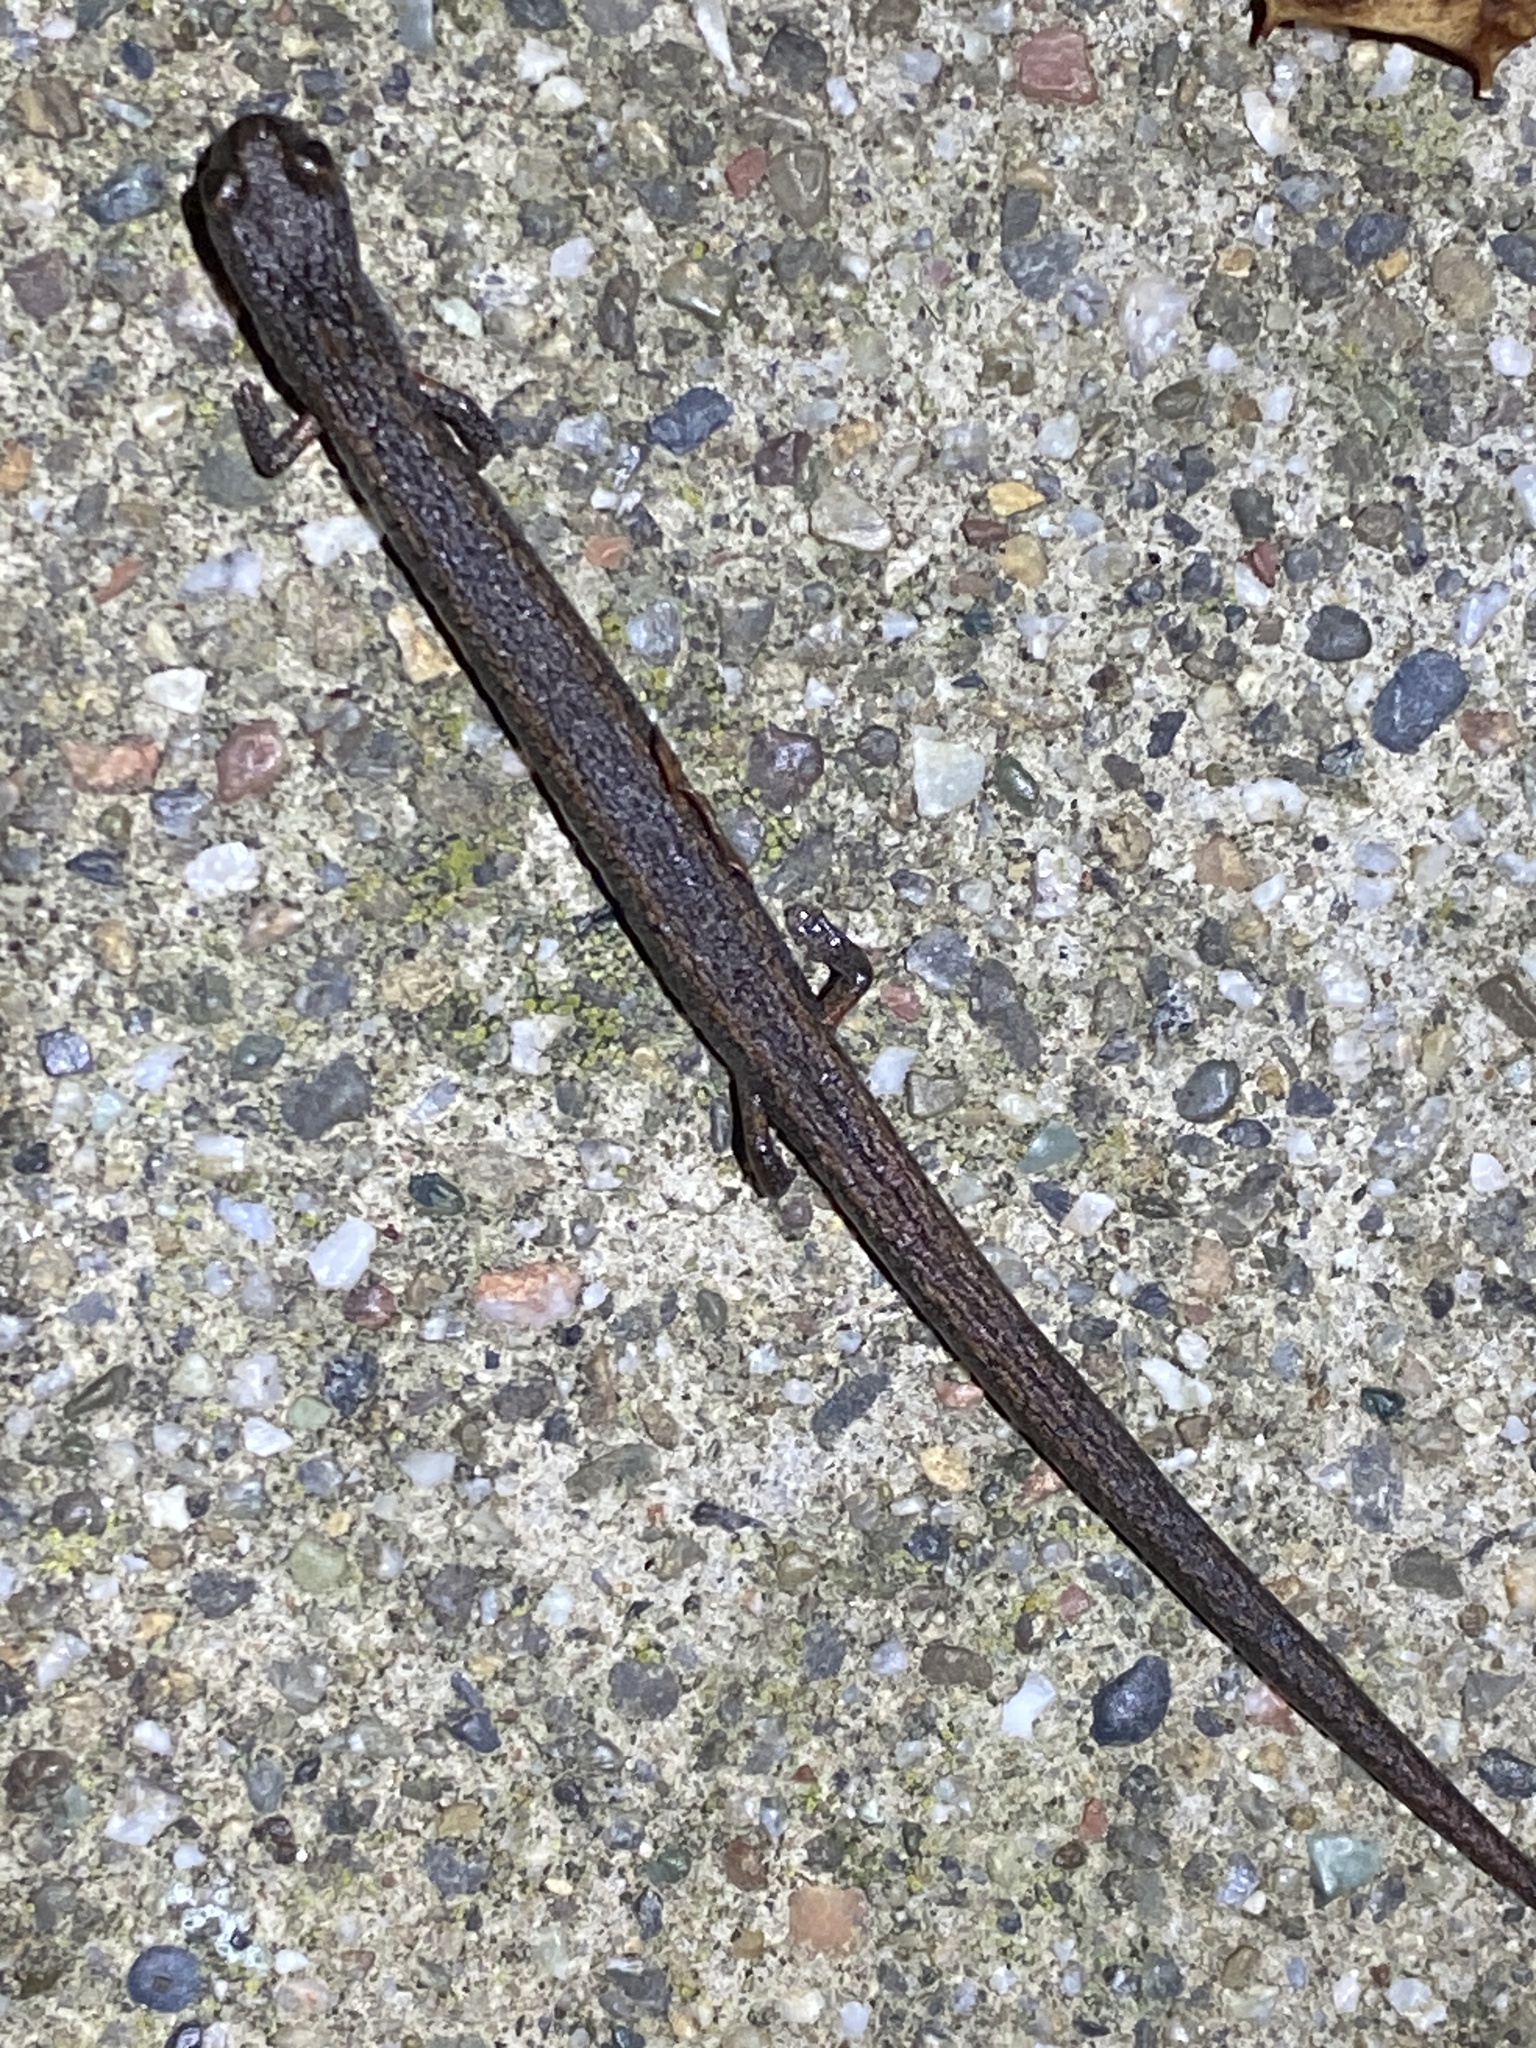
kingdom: Animalia
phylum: Chordata
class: Amphibia
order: Caudata
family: Plethodontidae
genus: Batrachoseps
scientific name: Batrachoseps attenuatus
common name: California slender salamander
